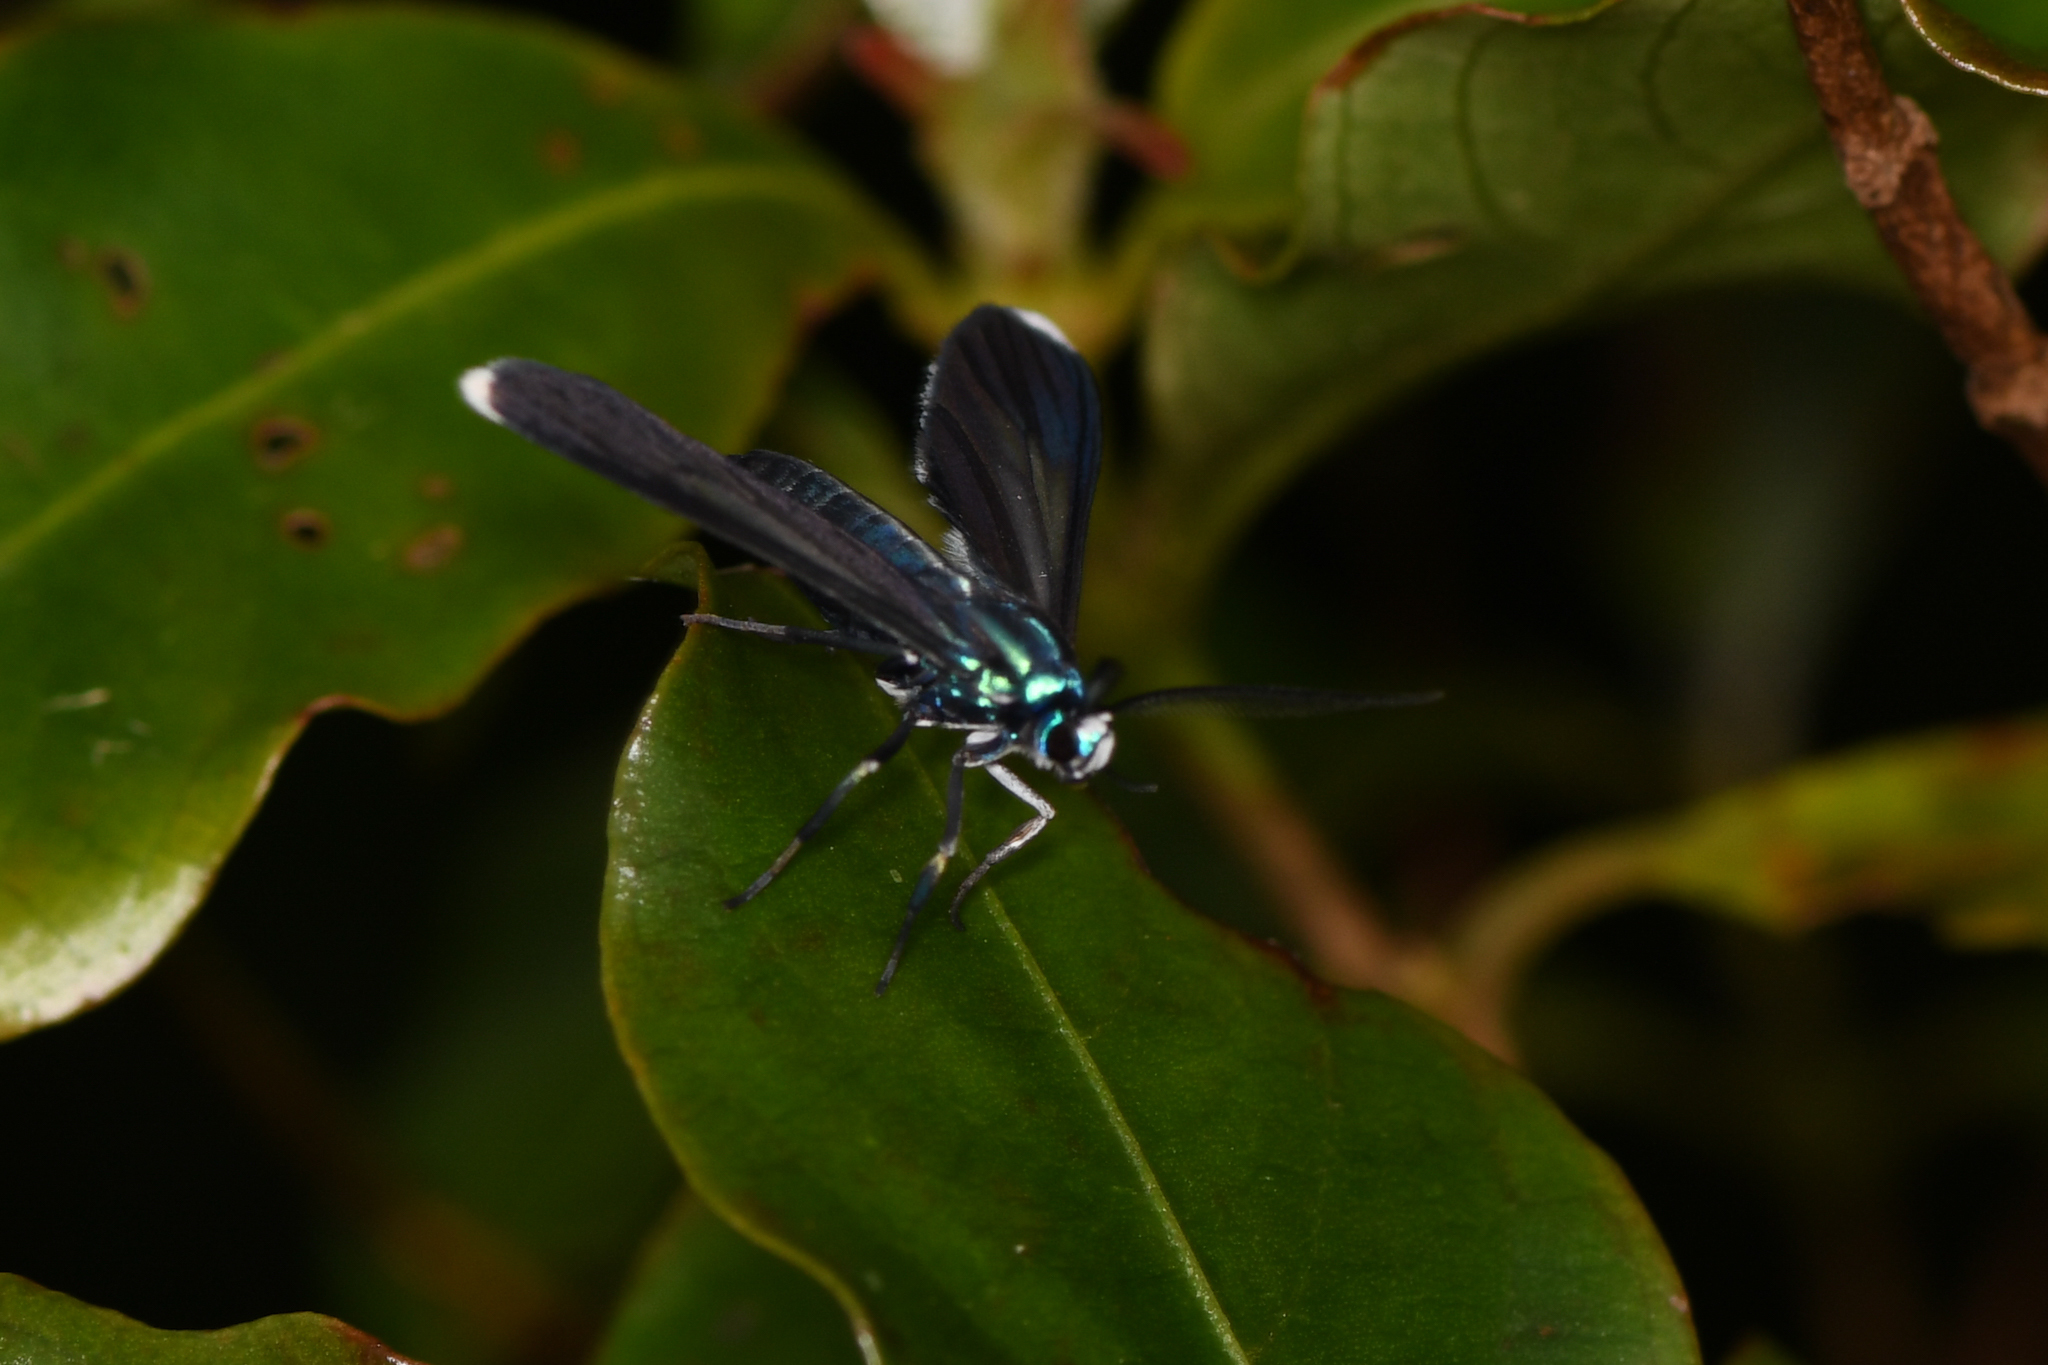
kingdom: Animalia
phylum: Arthropoda
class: Insecta
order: Lepidoptera
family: Erebidae
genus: Uranophora
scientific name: Uranophora leucotela
